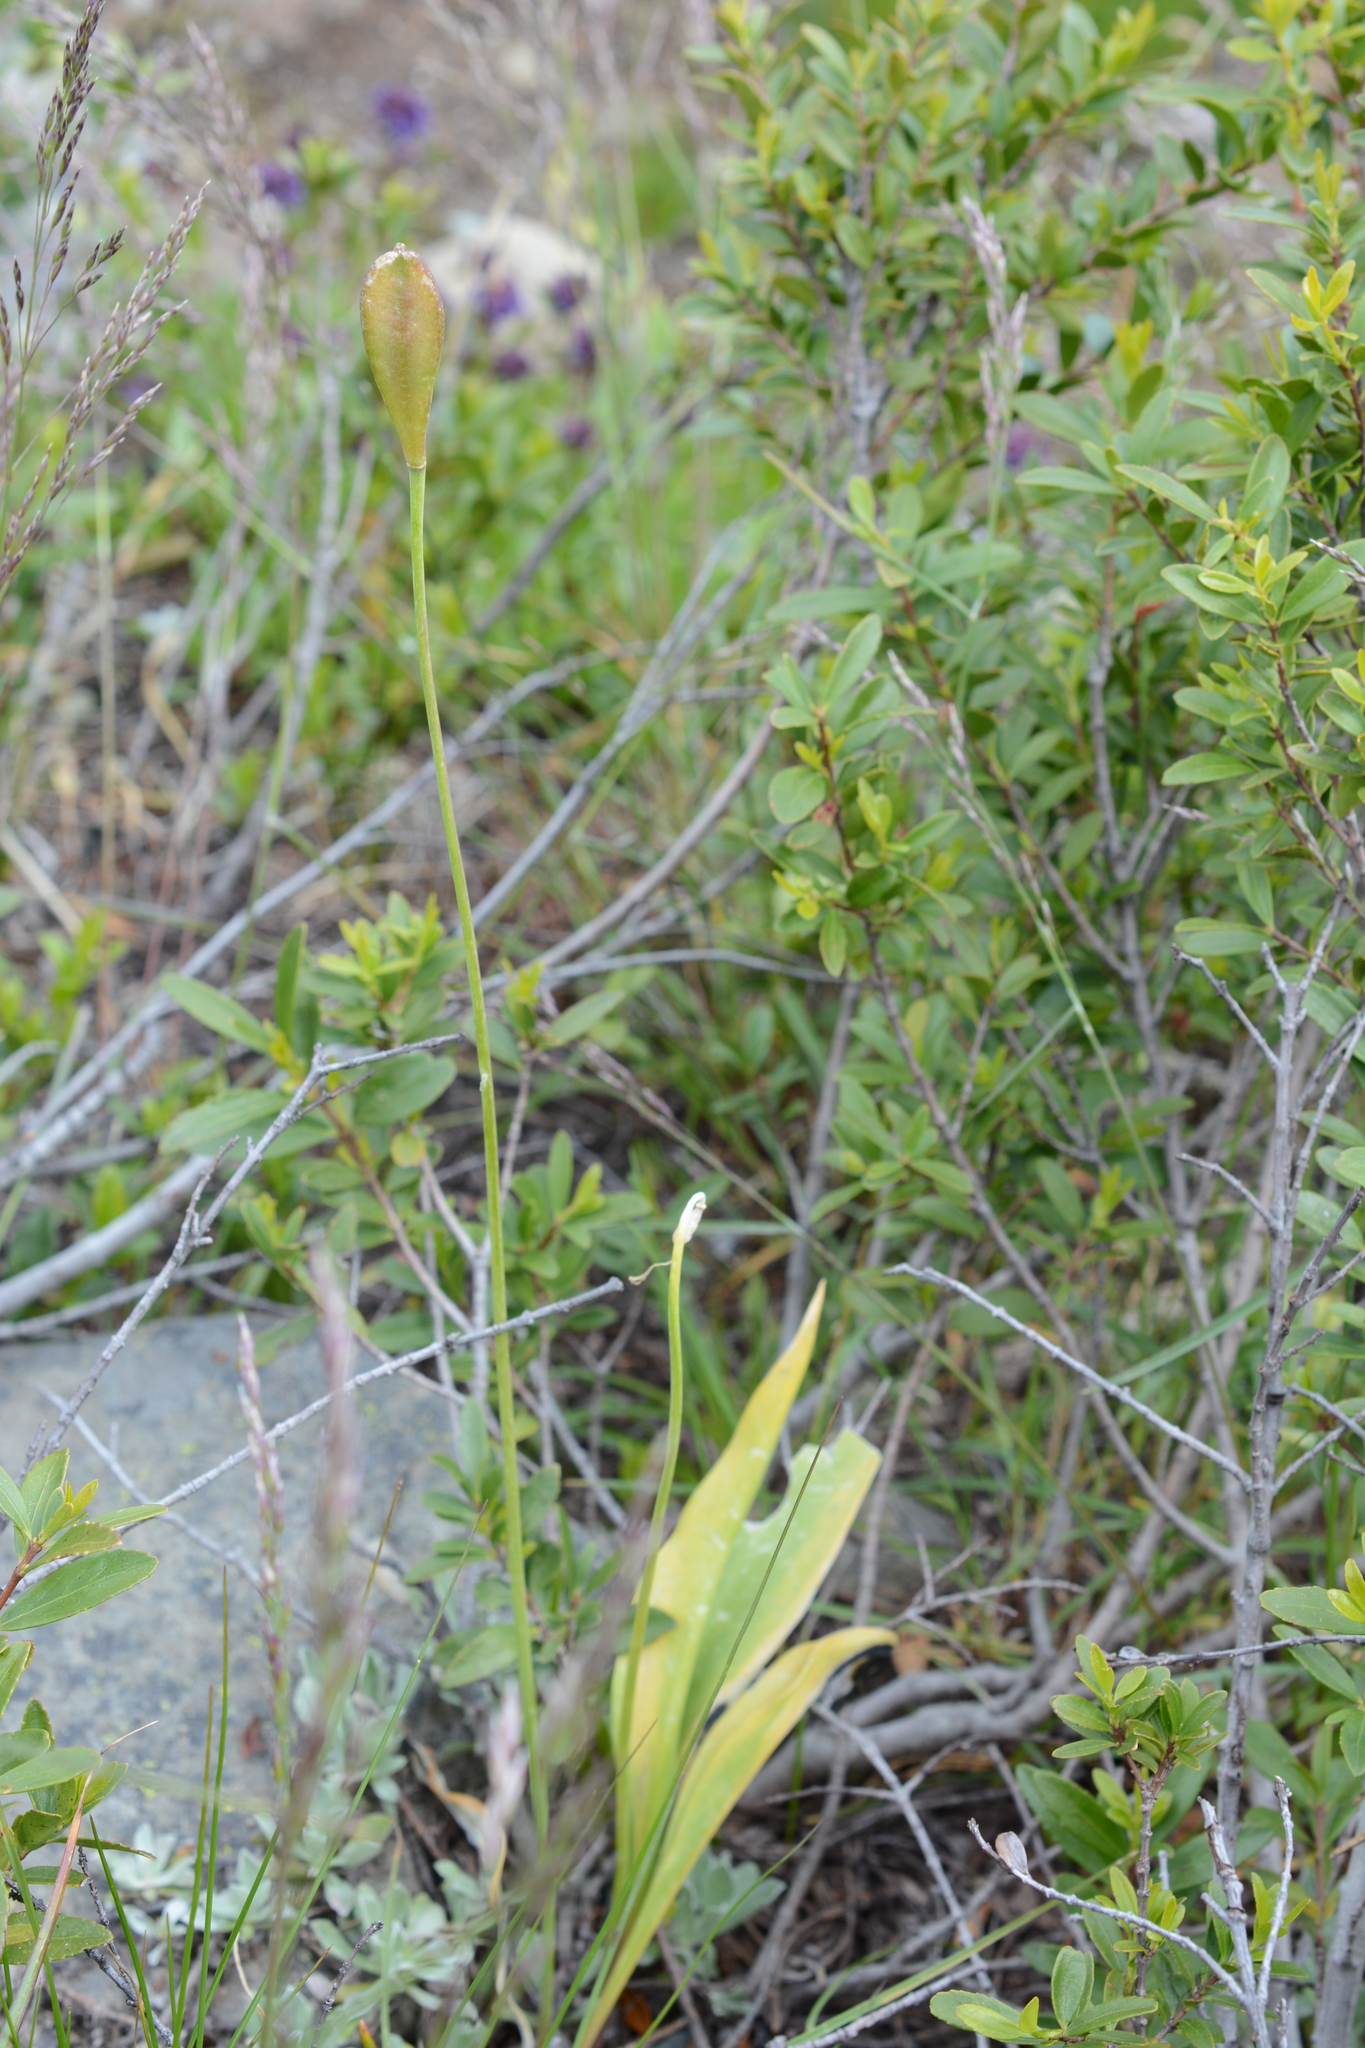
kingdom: Plantae
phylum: Tracheophyta
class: Liliopsida
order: Liliales
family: Liliaceae
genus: Erythronium
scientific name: Erythronium grandiflorum
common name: Avalanche-lily
